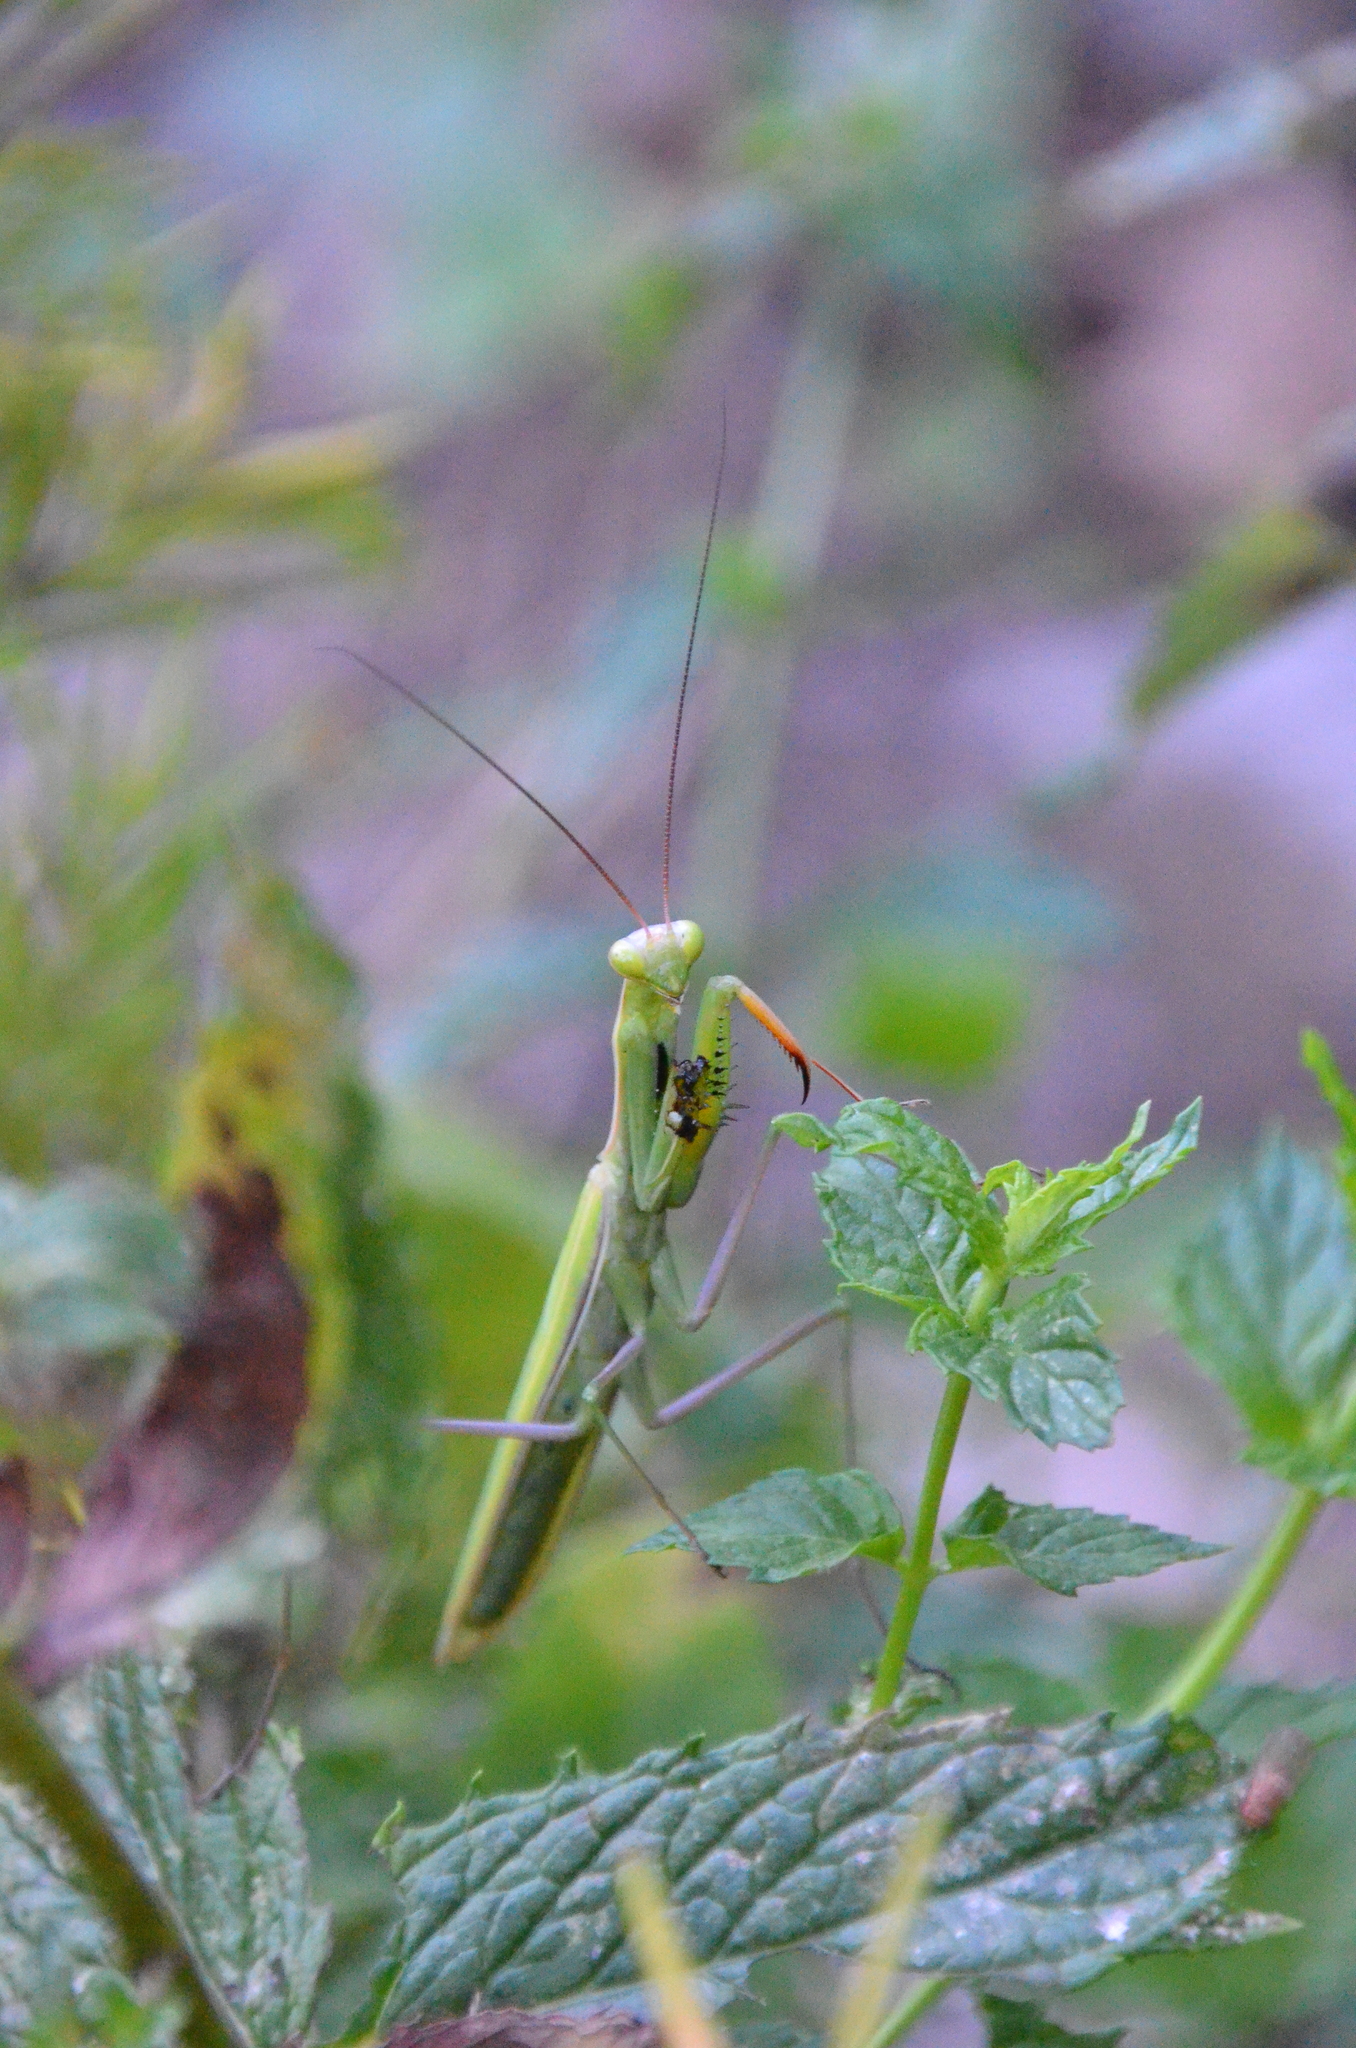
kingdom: Animalia
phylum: Arthropoda
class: Insecta
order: Mantodea
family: Mantidae
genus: Mantis
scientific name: Mantis religiosa
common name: Praying mantis
